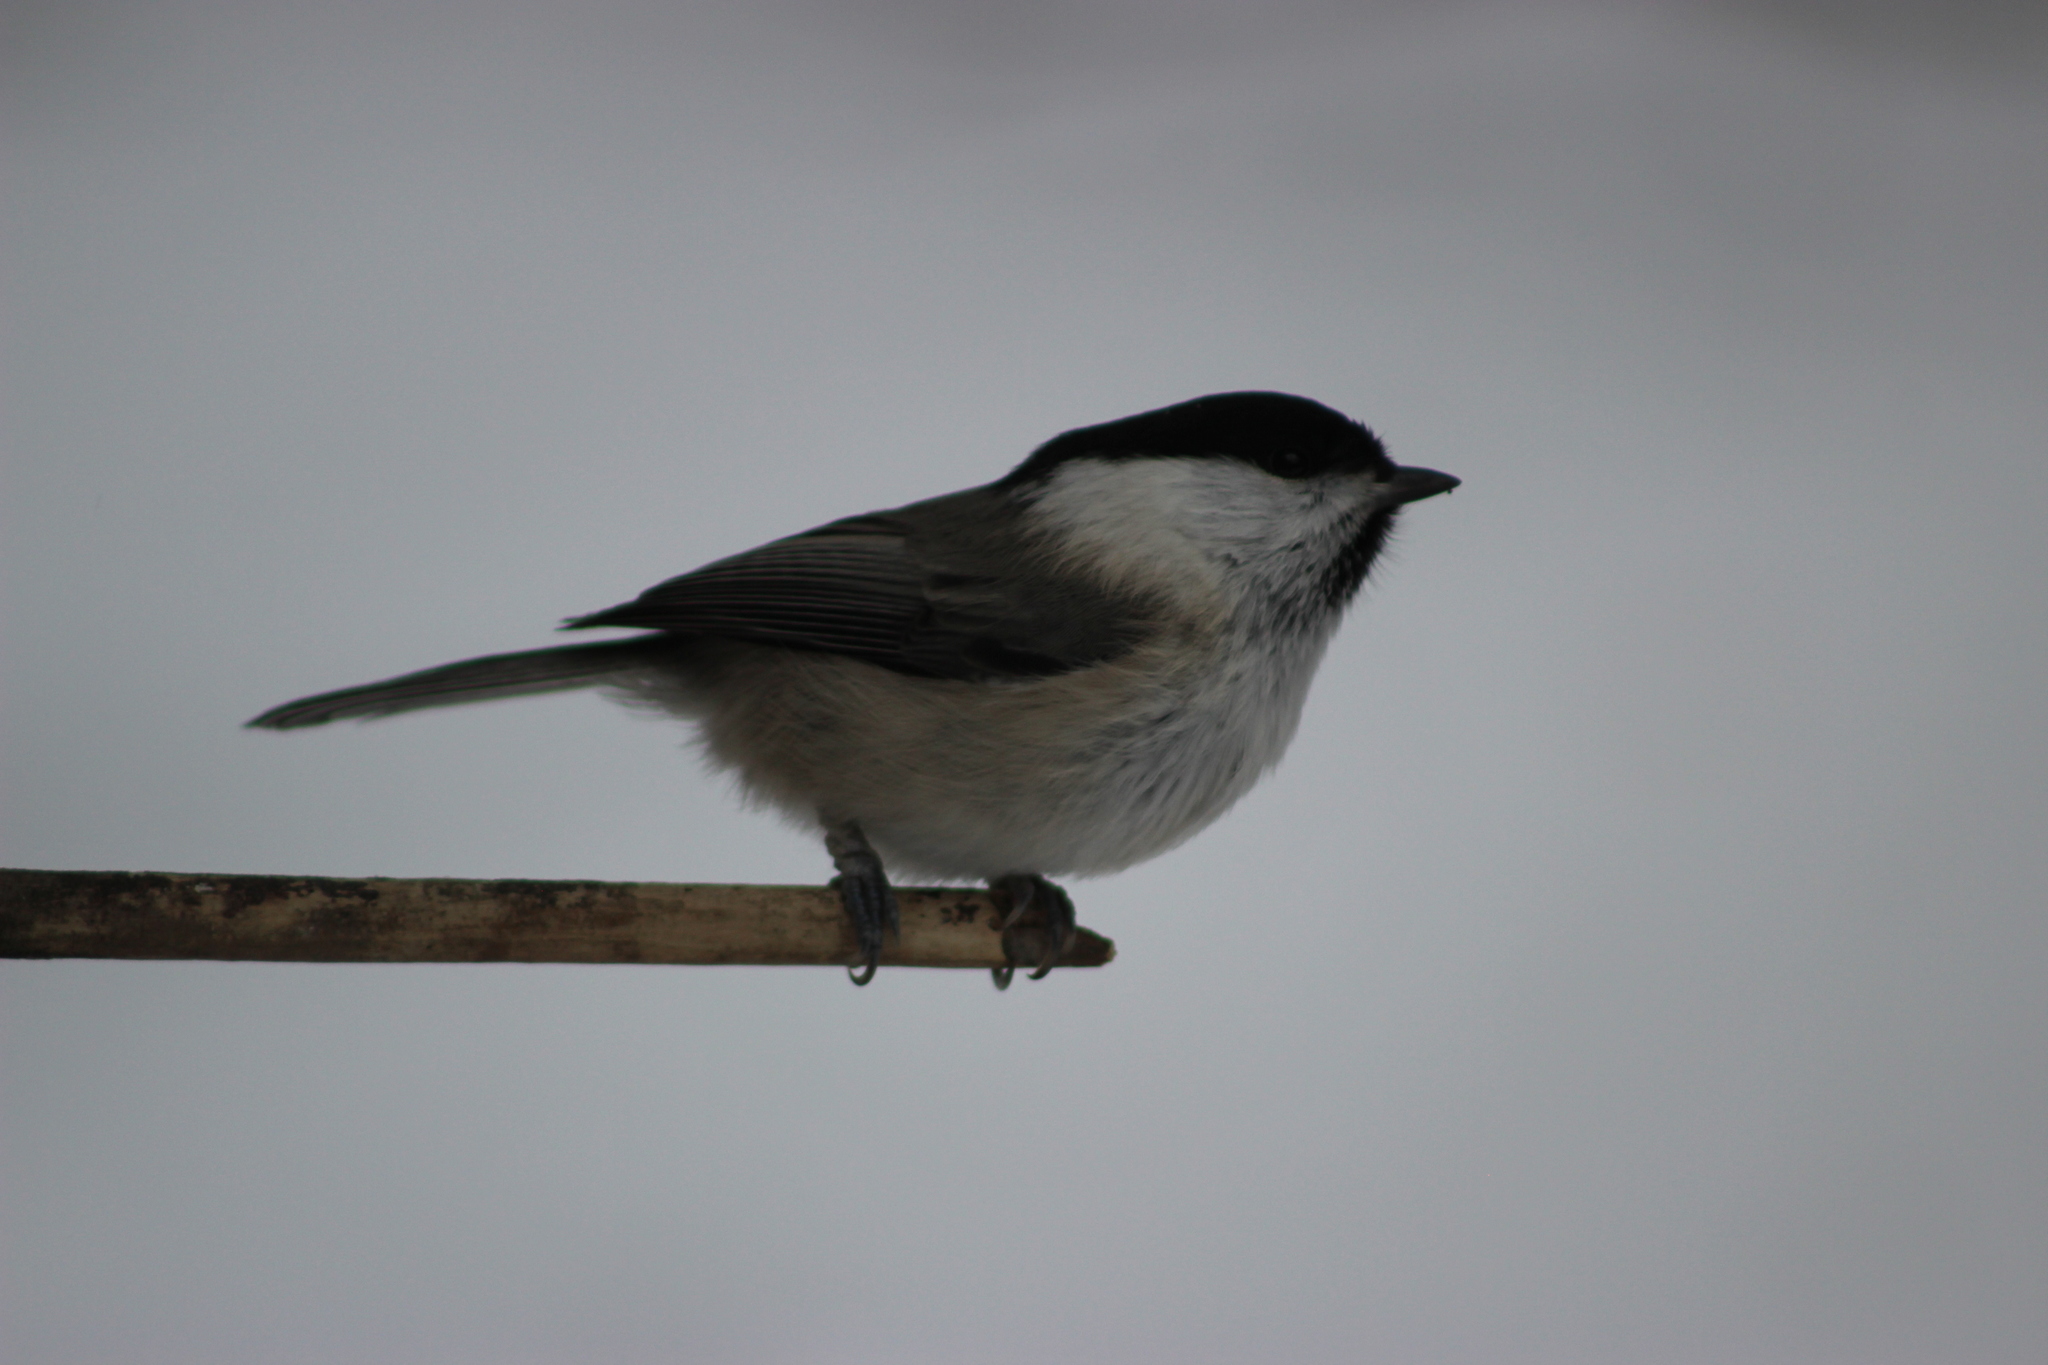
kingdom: Animalia
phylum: Chordata
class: Aves
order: Passeriformes
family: Paridae
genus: Poecile
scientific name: Poecile montanus
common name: Willow tit
